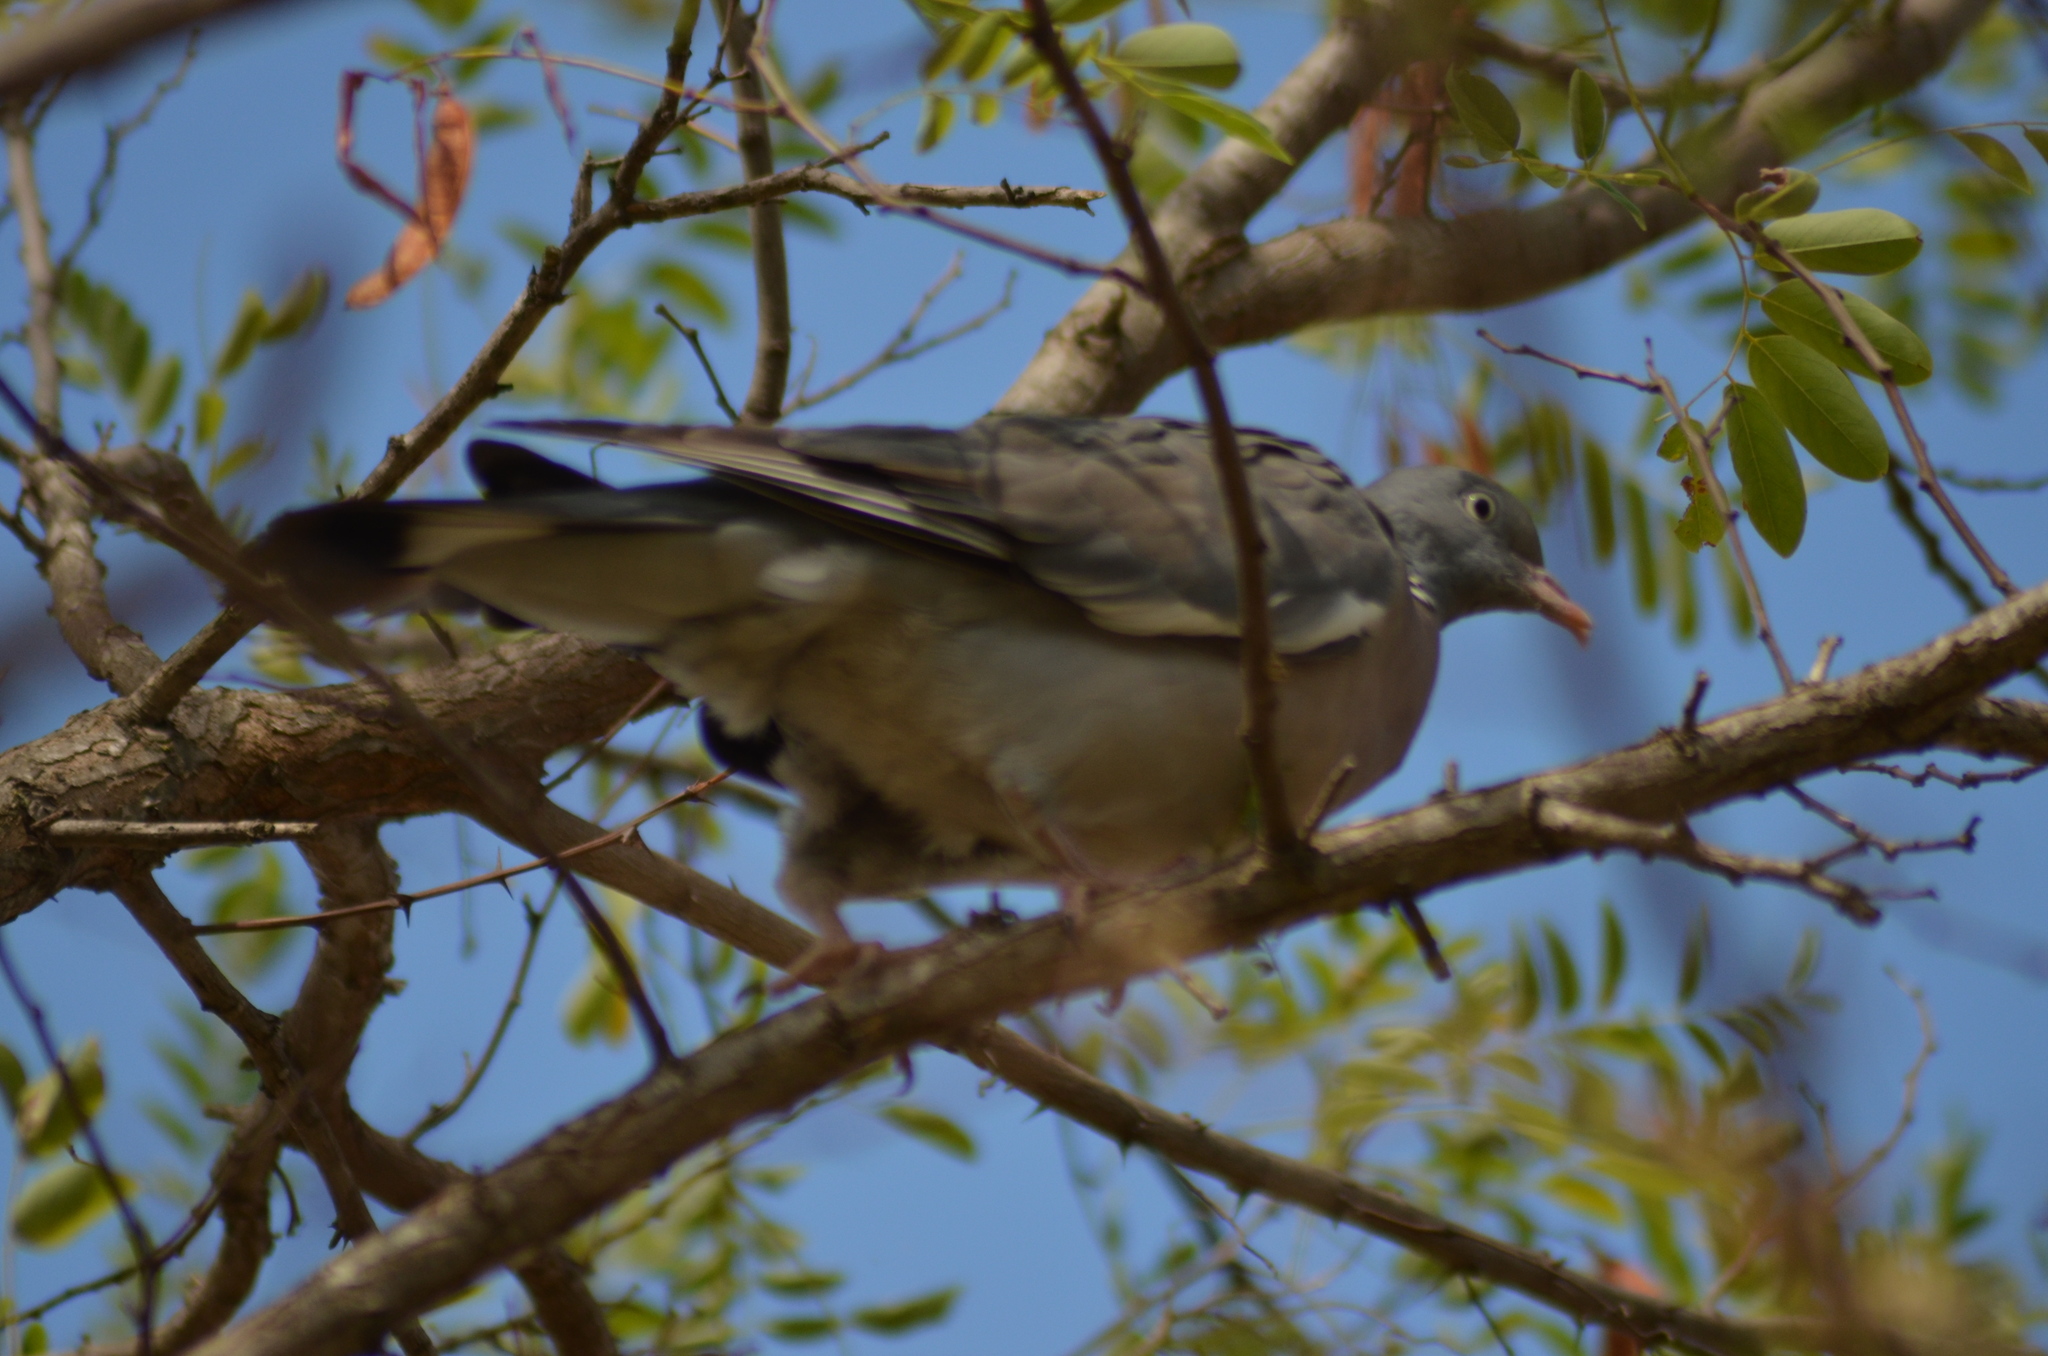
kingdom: Animalia
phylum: Chordata
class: Aves
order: Columbiformes
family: Columbidae
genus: Columba
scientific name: Columba palumbus
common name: Common wood pigeon
